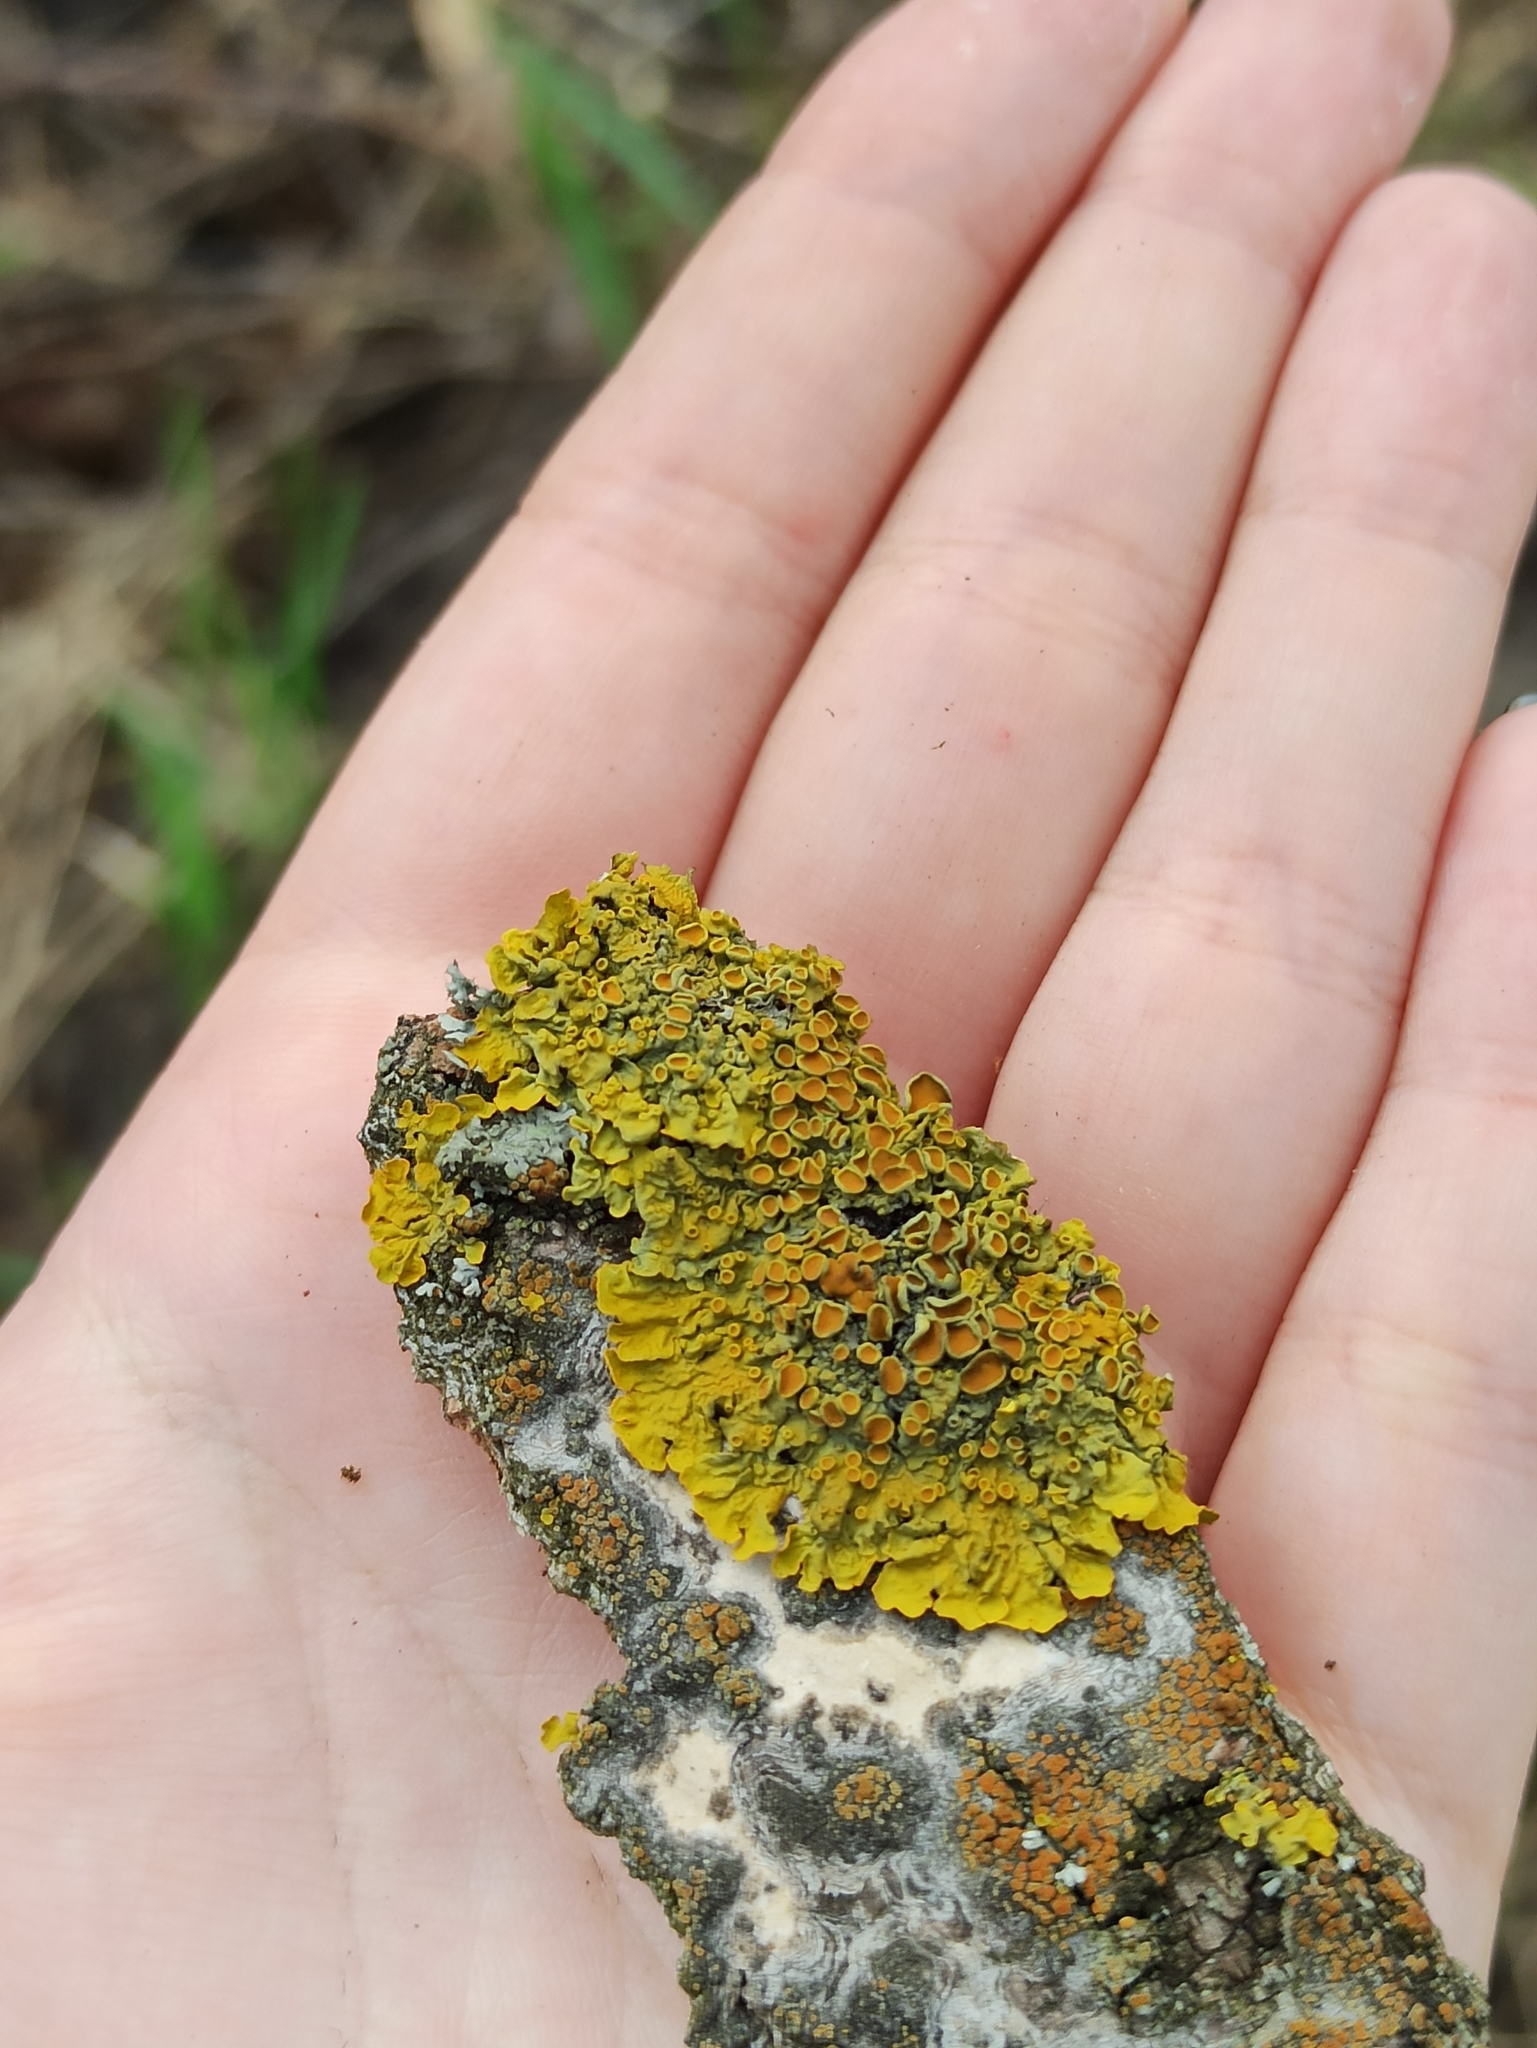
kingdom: Fungi
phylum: Ascomycota
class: Lecanoromycetes
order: Teloschistales
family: Teloschistaceae
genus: Xanthoria
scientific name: Xanthoria parietina
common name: Common orange lichen
